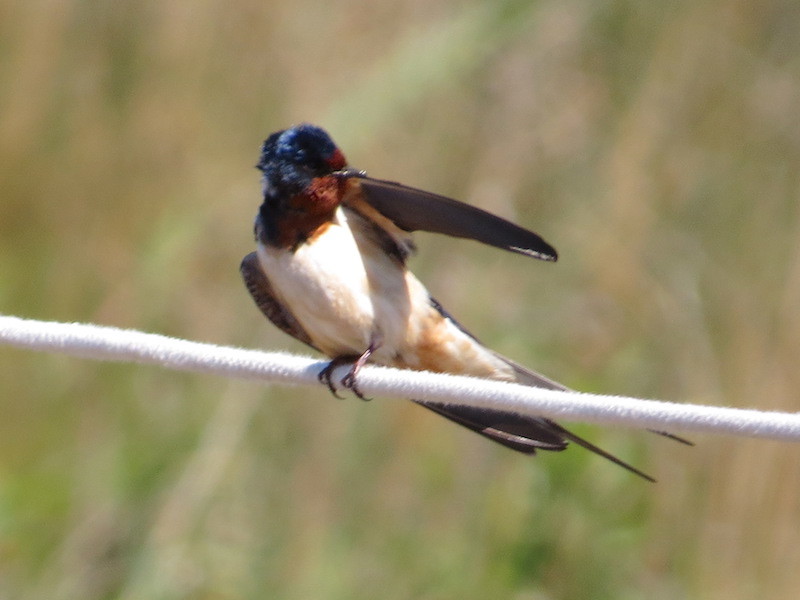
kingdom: Animalia
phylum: Chordata
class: Aves
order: Passeriformes
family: Hirundinidae
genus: Hirundo
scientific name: Hirundo rustica
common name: Barn swallow
